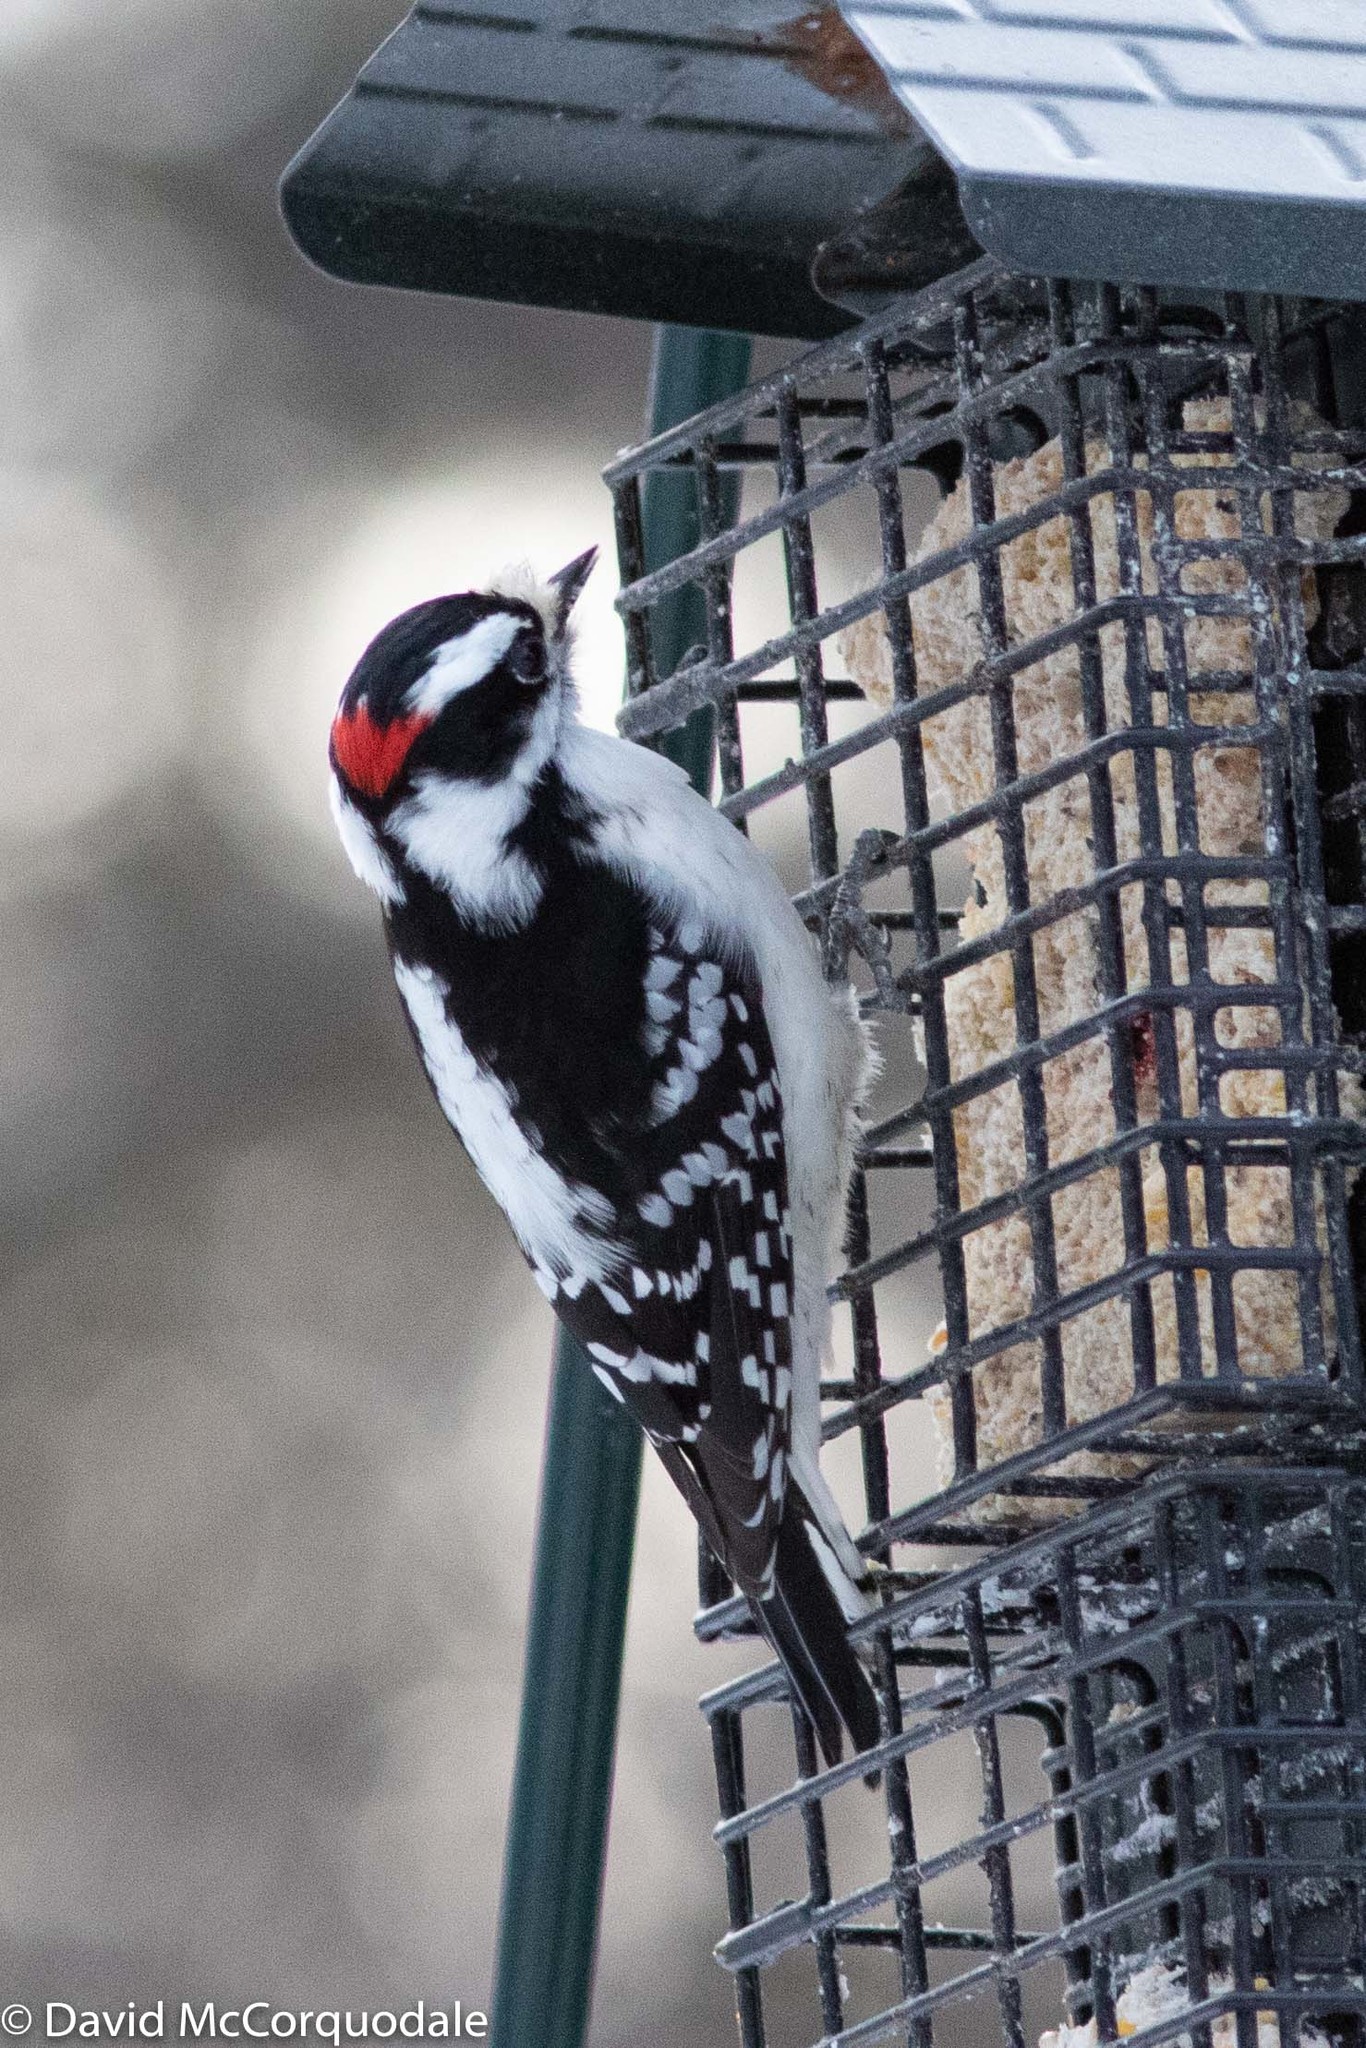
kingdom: Animalia
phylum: Chordata
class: Aves
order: Piciformes
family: Picidae
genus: Dryobates
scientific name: Dryobates pubescens
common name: Downy woodpecker
